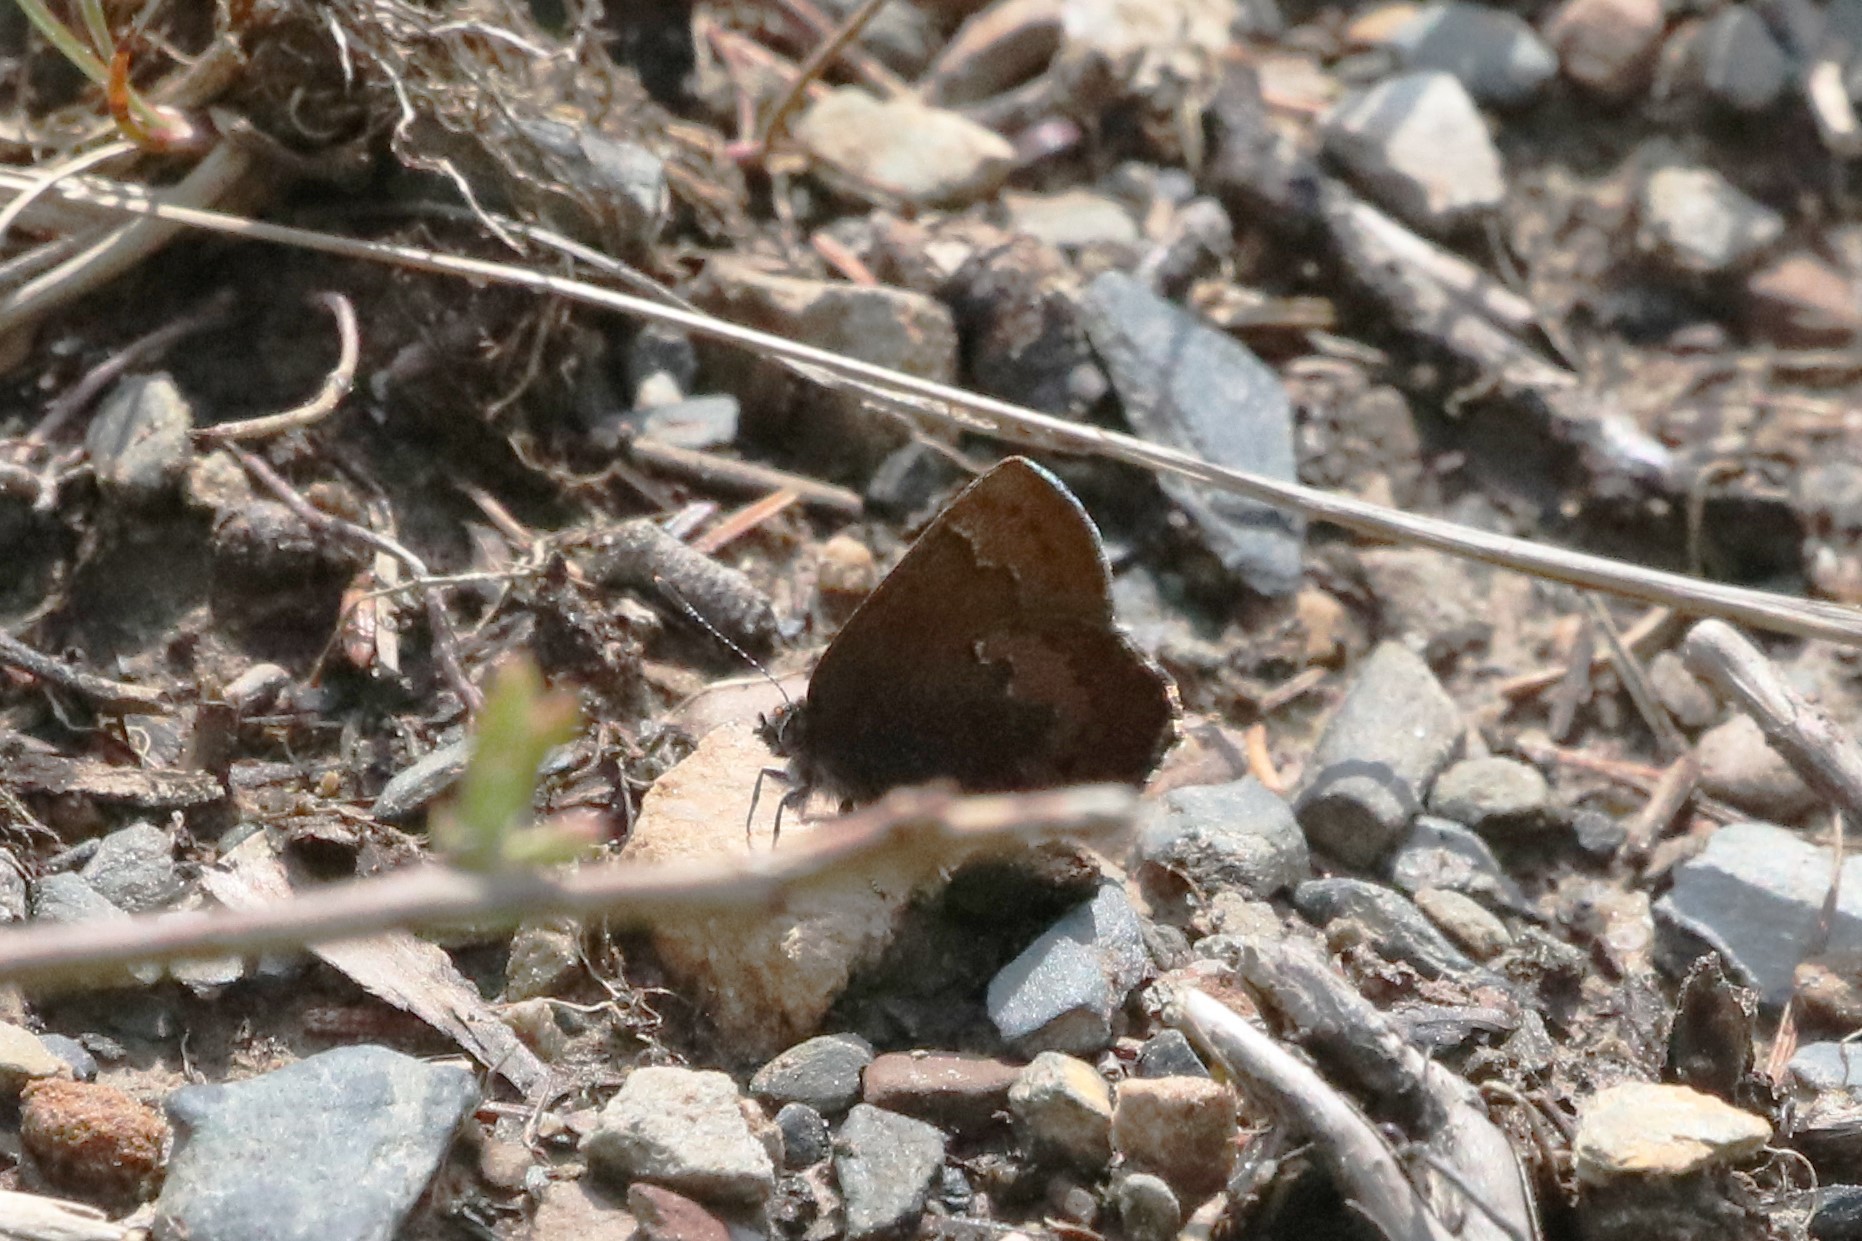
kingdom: Animalia
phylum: Arthropoda
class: Insecta
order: Lepidoptera
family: Lycaenidae
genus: Incisalia
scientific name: Incisalia irioides
